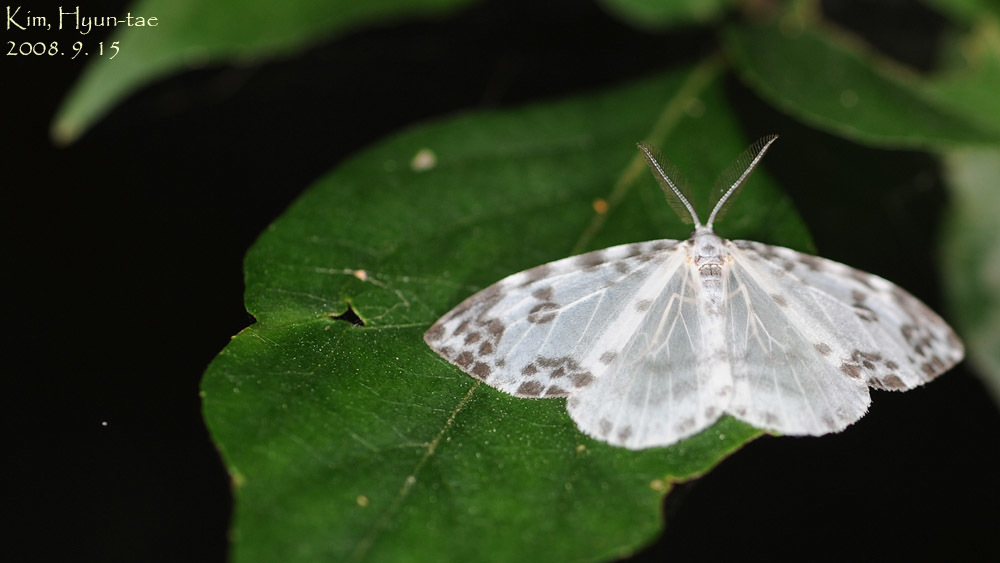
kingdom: Animalia
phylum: Arthropoda
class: Insecta
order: Lepidoptera
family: Drepanidae
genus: Deroca
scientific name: Deroca inconclusa
